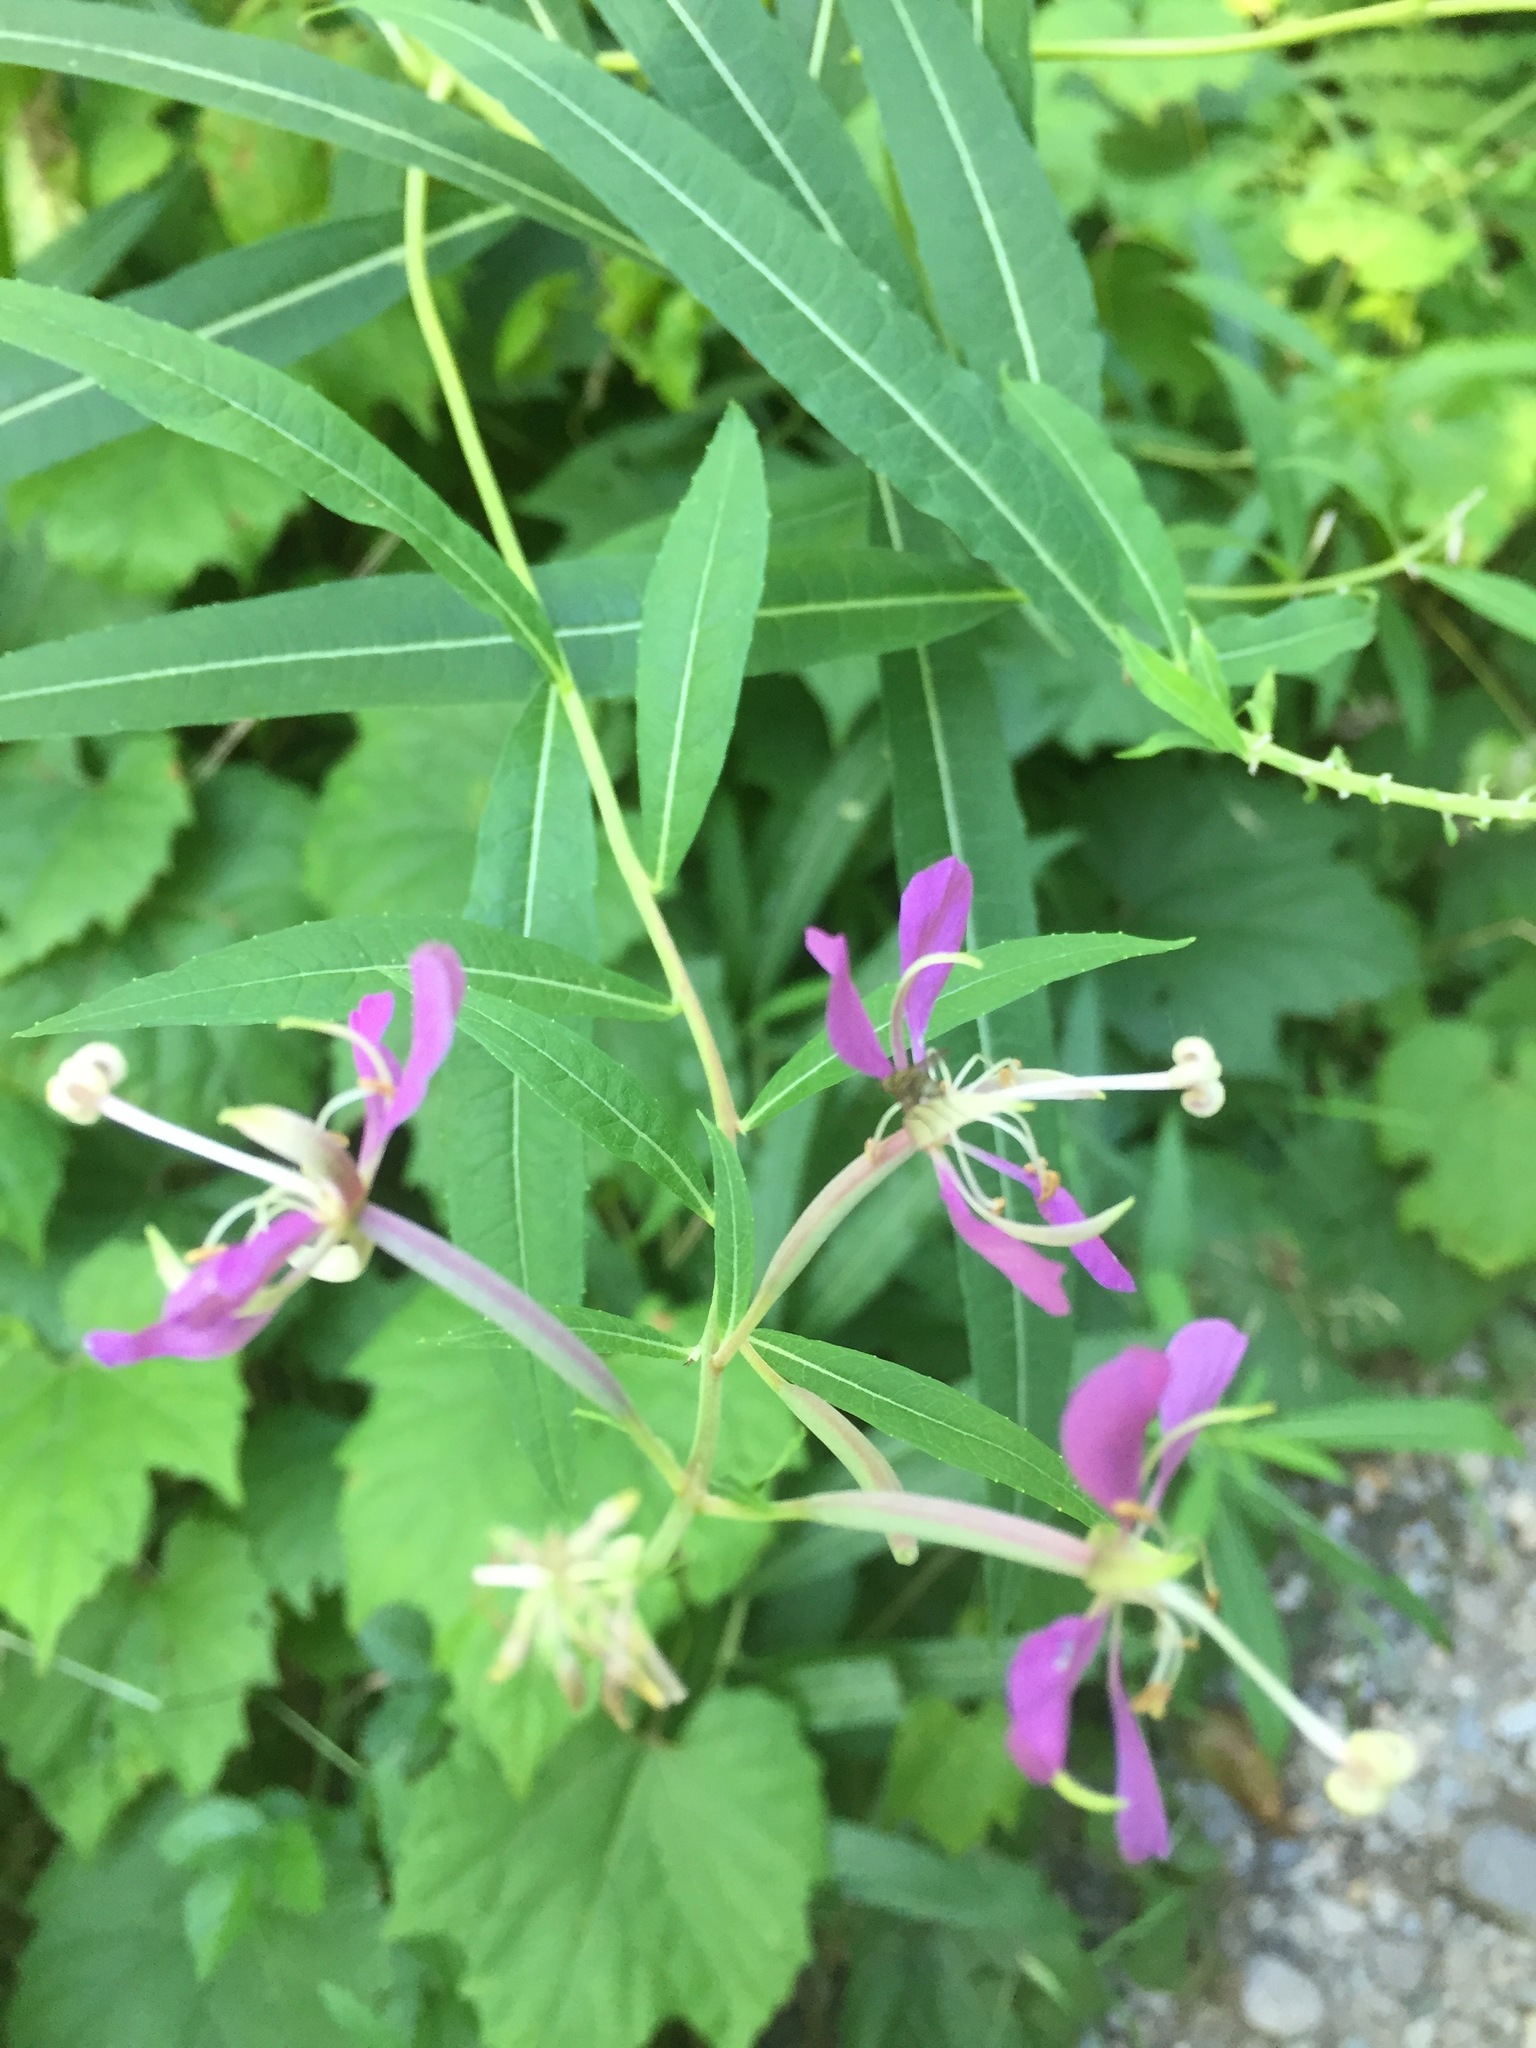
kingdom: Plantae
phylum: Tracheophyta
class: Magnoliopsida
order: Myrtales
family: Onagraceae
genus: Chamaenerion
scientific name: Chamaenerion angustifolium
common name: Fireweed
